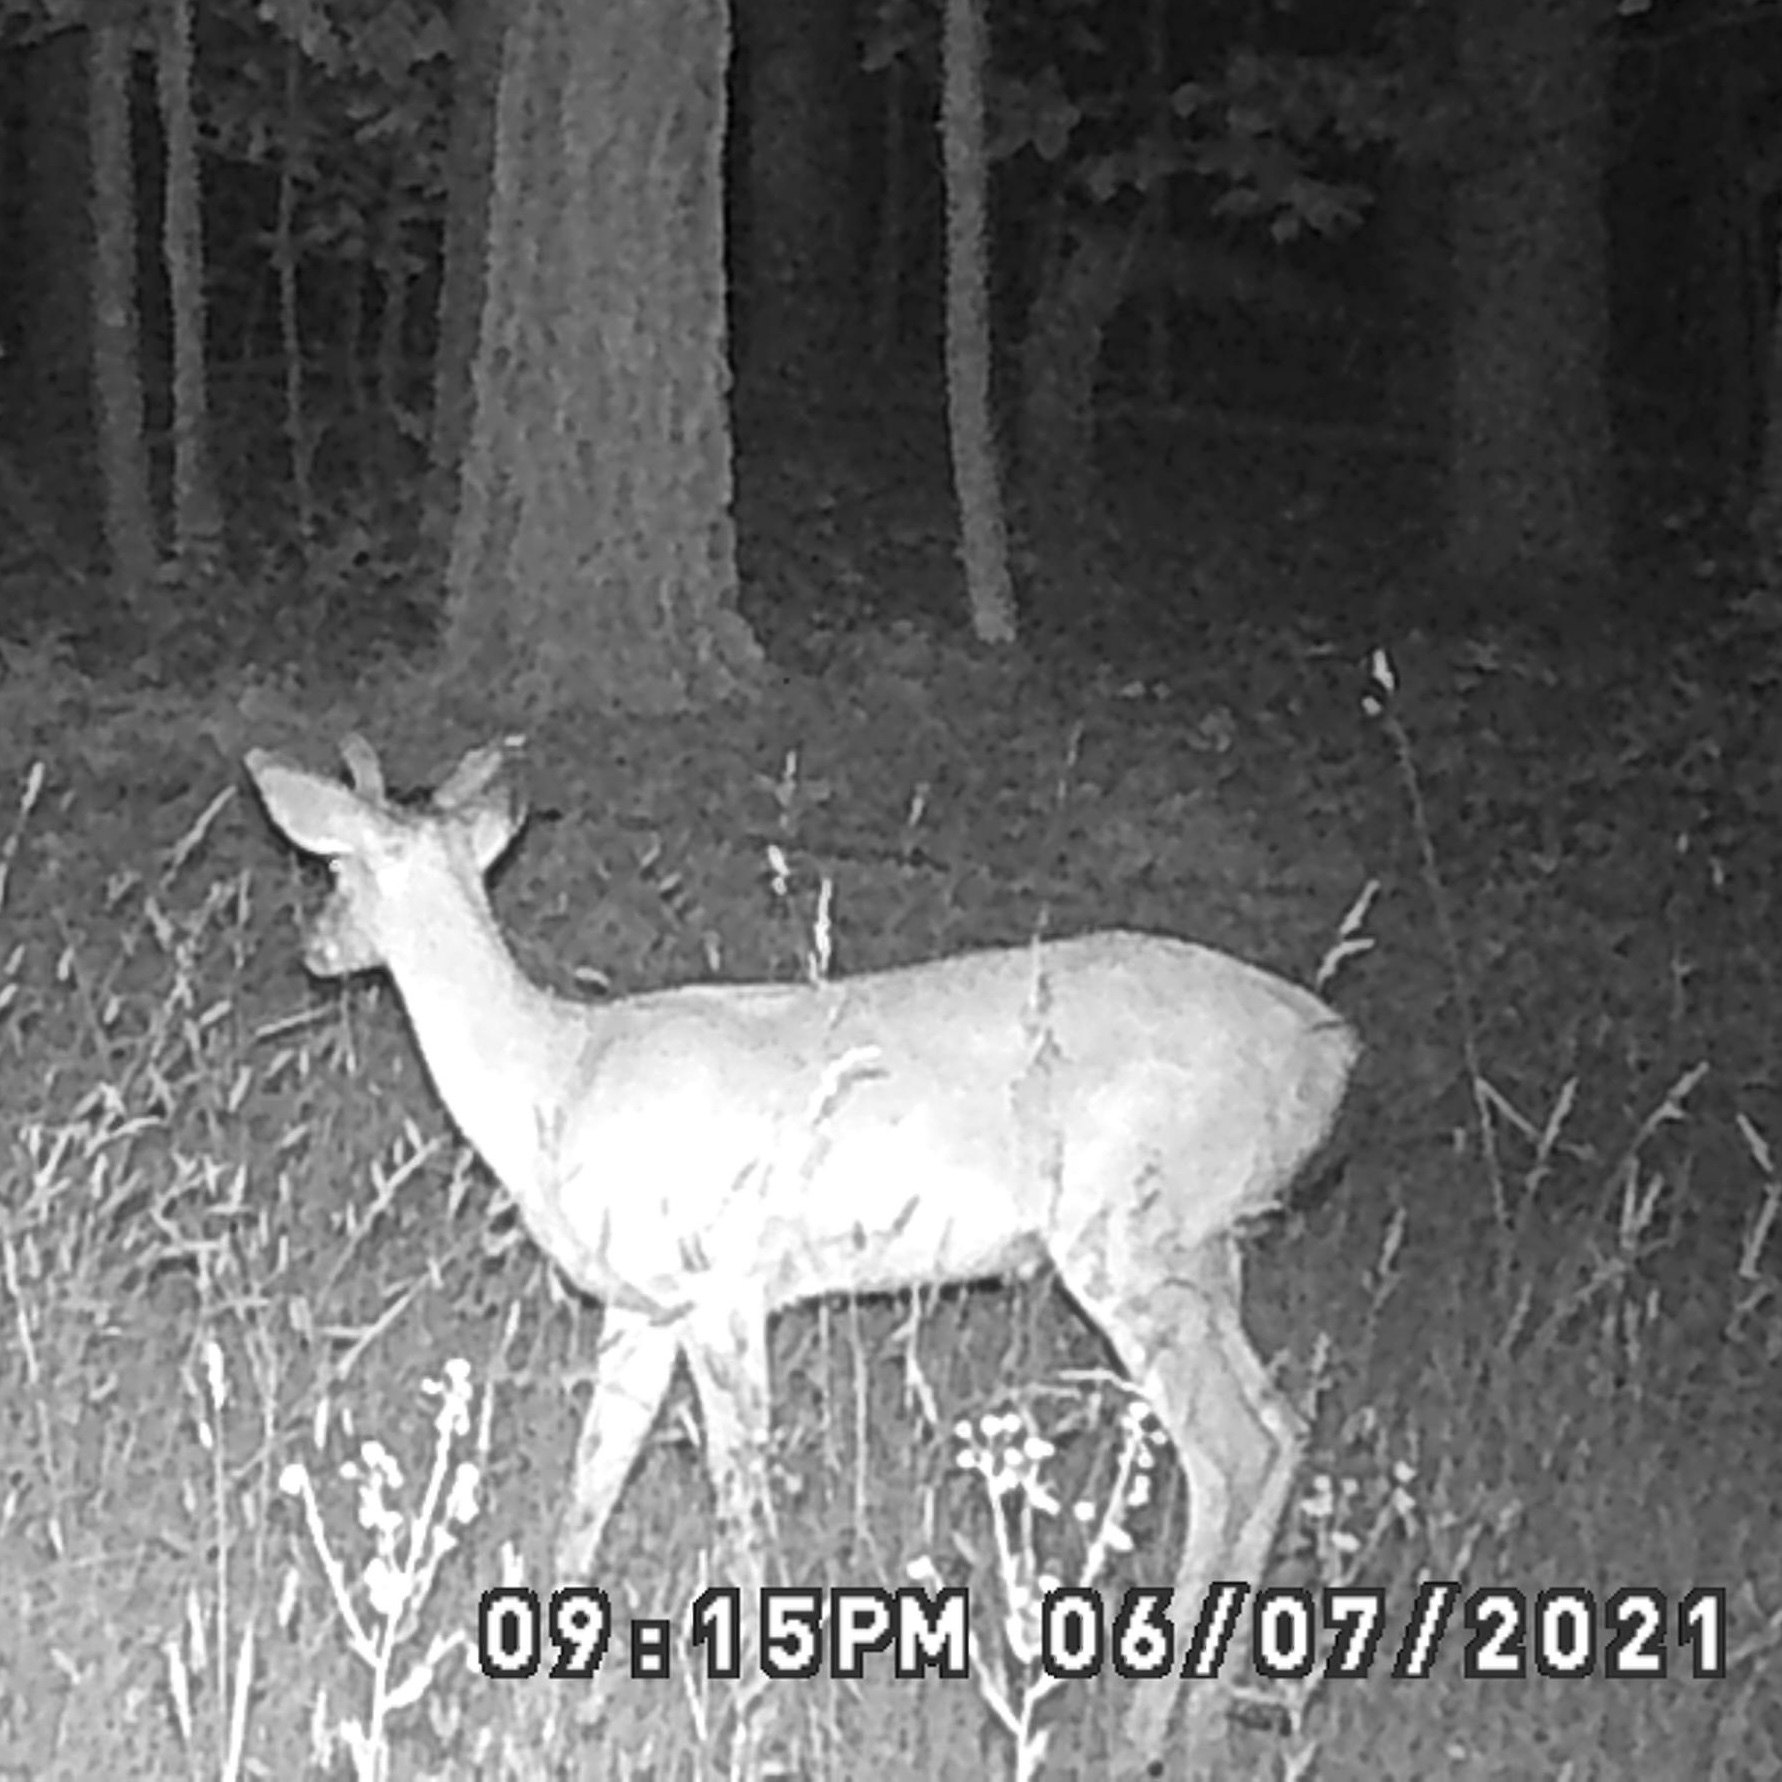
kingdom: Animalia
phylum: Chordata
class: Mammalia
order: Artiodactyla
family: Cervidae
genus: Odocoileus
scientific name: Odocoileus virginianus
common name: White-tailed deer
